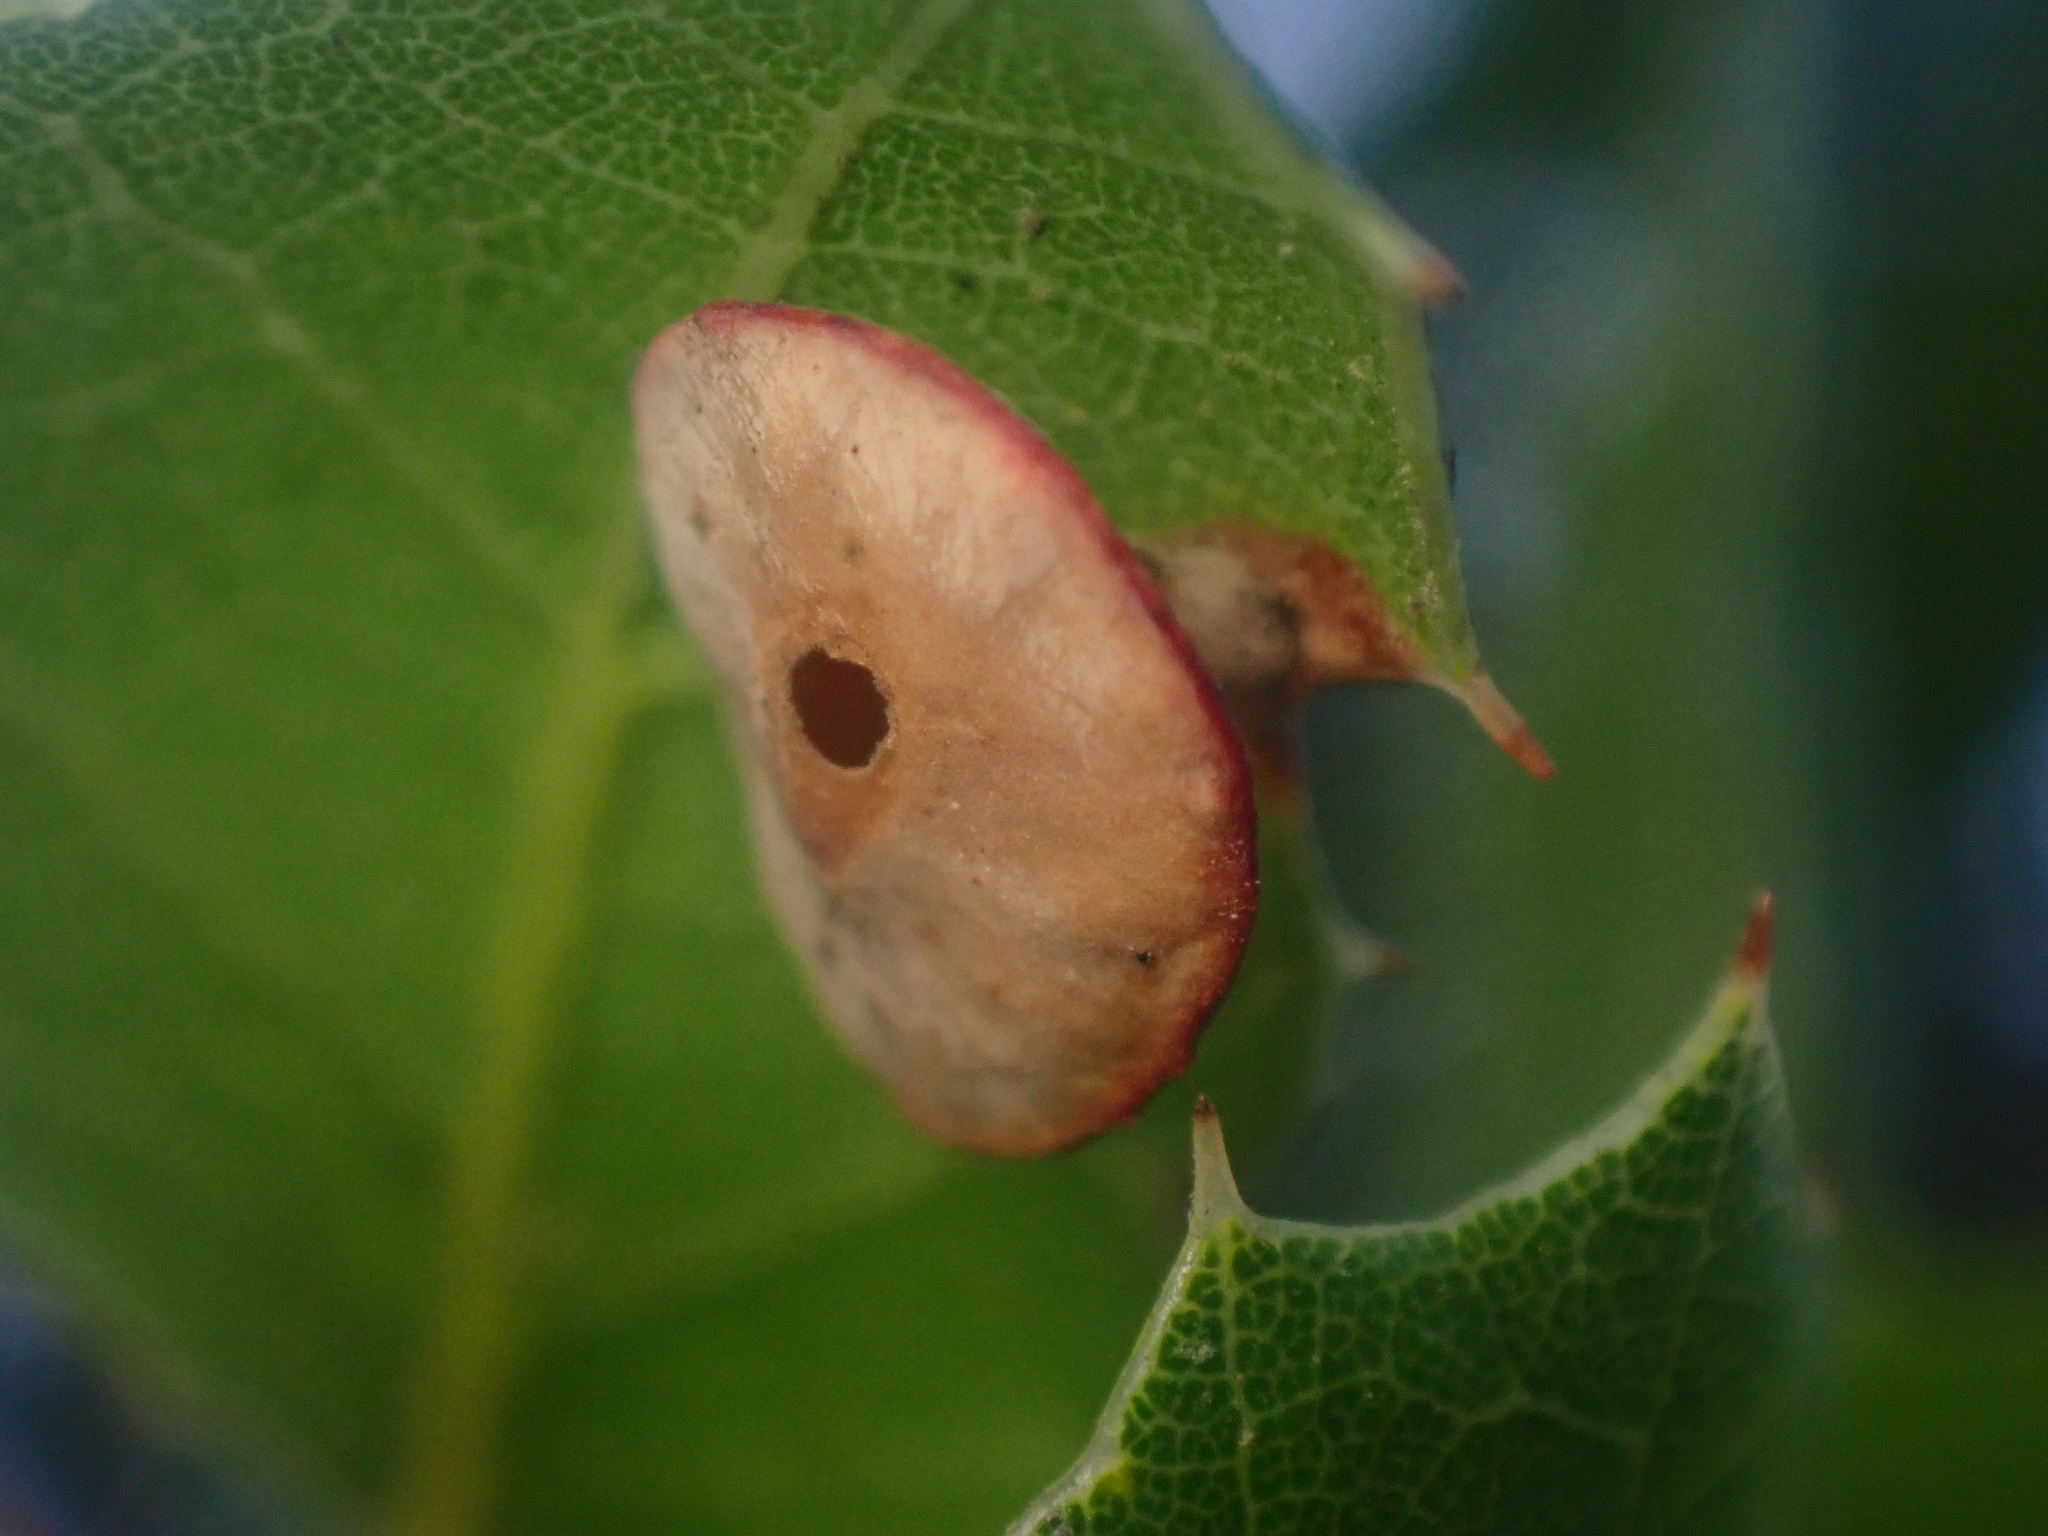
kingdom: Animalia
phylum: Arthropoda
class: Insecta
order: Hymenoptera
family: Cynipidae
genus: Amphibolips
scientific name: Amphibolips quercuspomiformis
